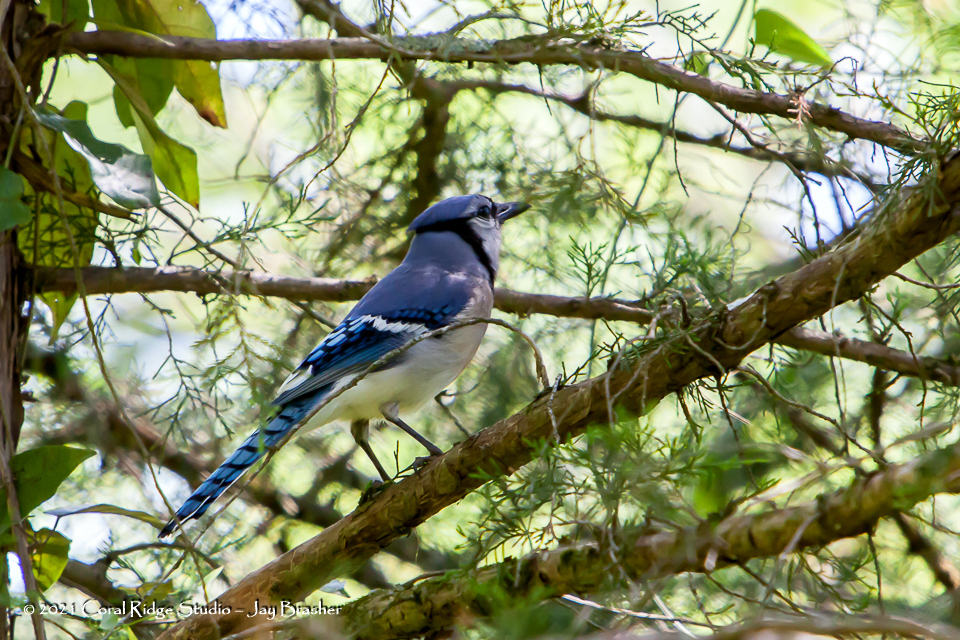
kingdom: Animalia
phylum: Chordata
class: Aves
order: Passeriformes
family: Corvidae
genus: Cyanocitta
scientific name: Cyanocitta cristata
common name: Blue jay
